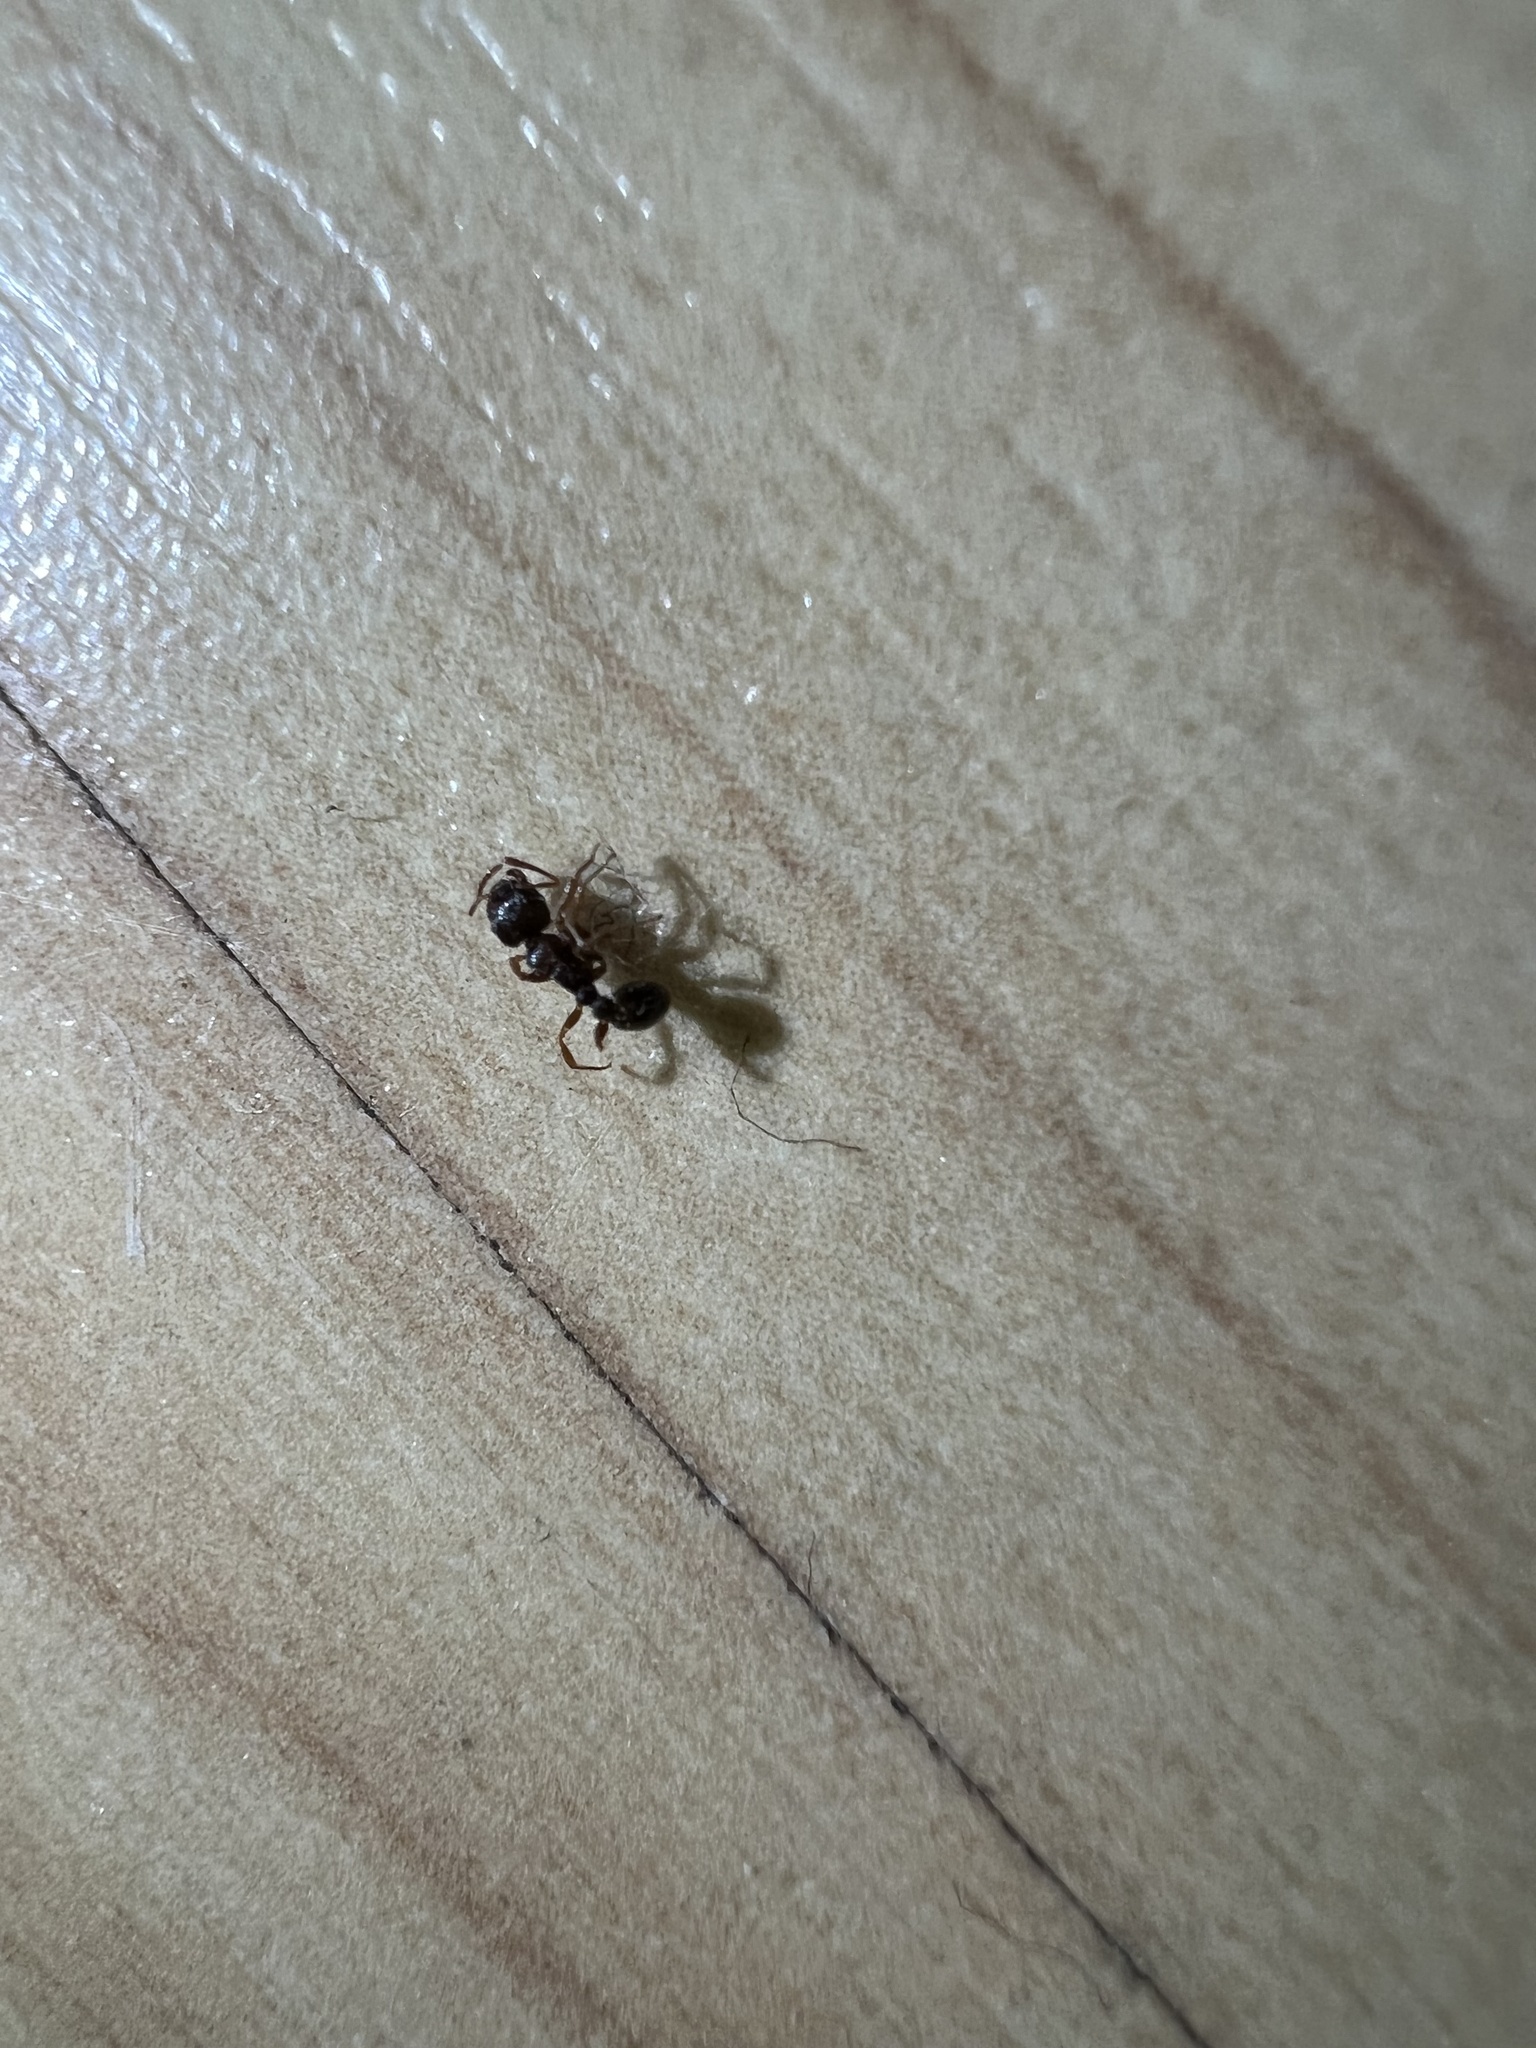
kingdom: Animalia
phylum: Arthropoda
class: Insecta
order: Hymenoptera
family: Formicidae
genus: Tetramorium
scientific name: Tetramorium immigrans
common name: Pavement ant
